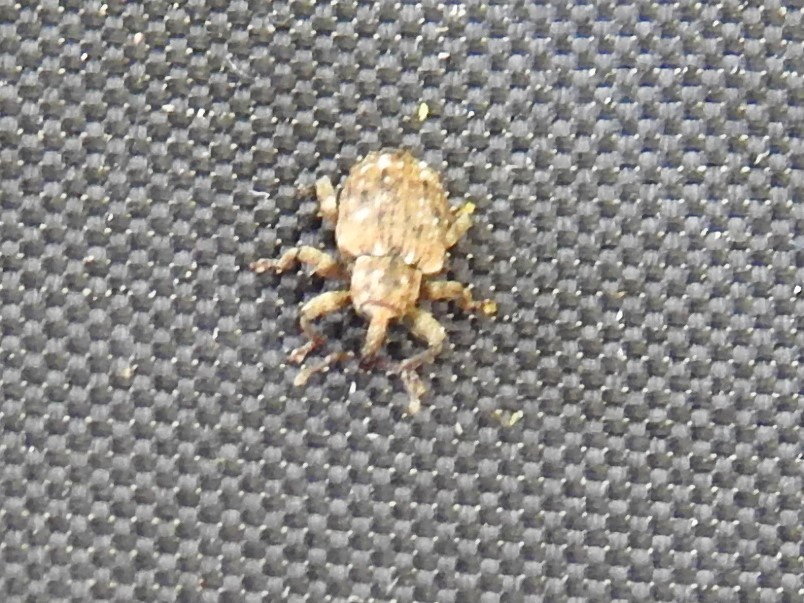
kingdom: Animalia
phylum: Arthropoda
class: Insecta
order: Coleoptera
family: Curculionidae
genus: Conotrachelus
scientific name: Conotrachelus recessus
